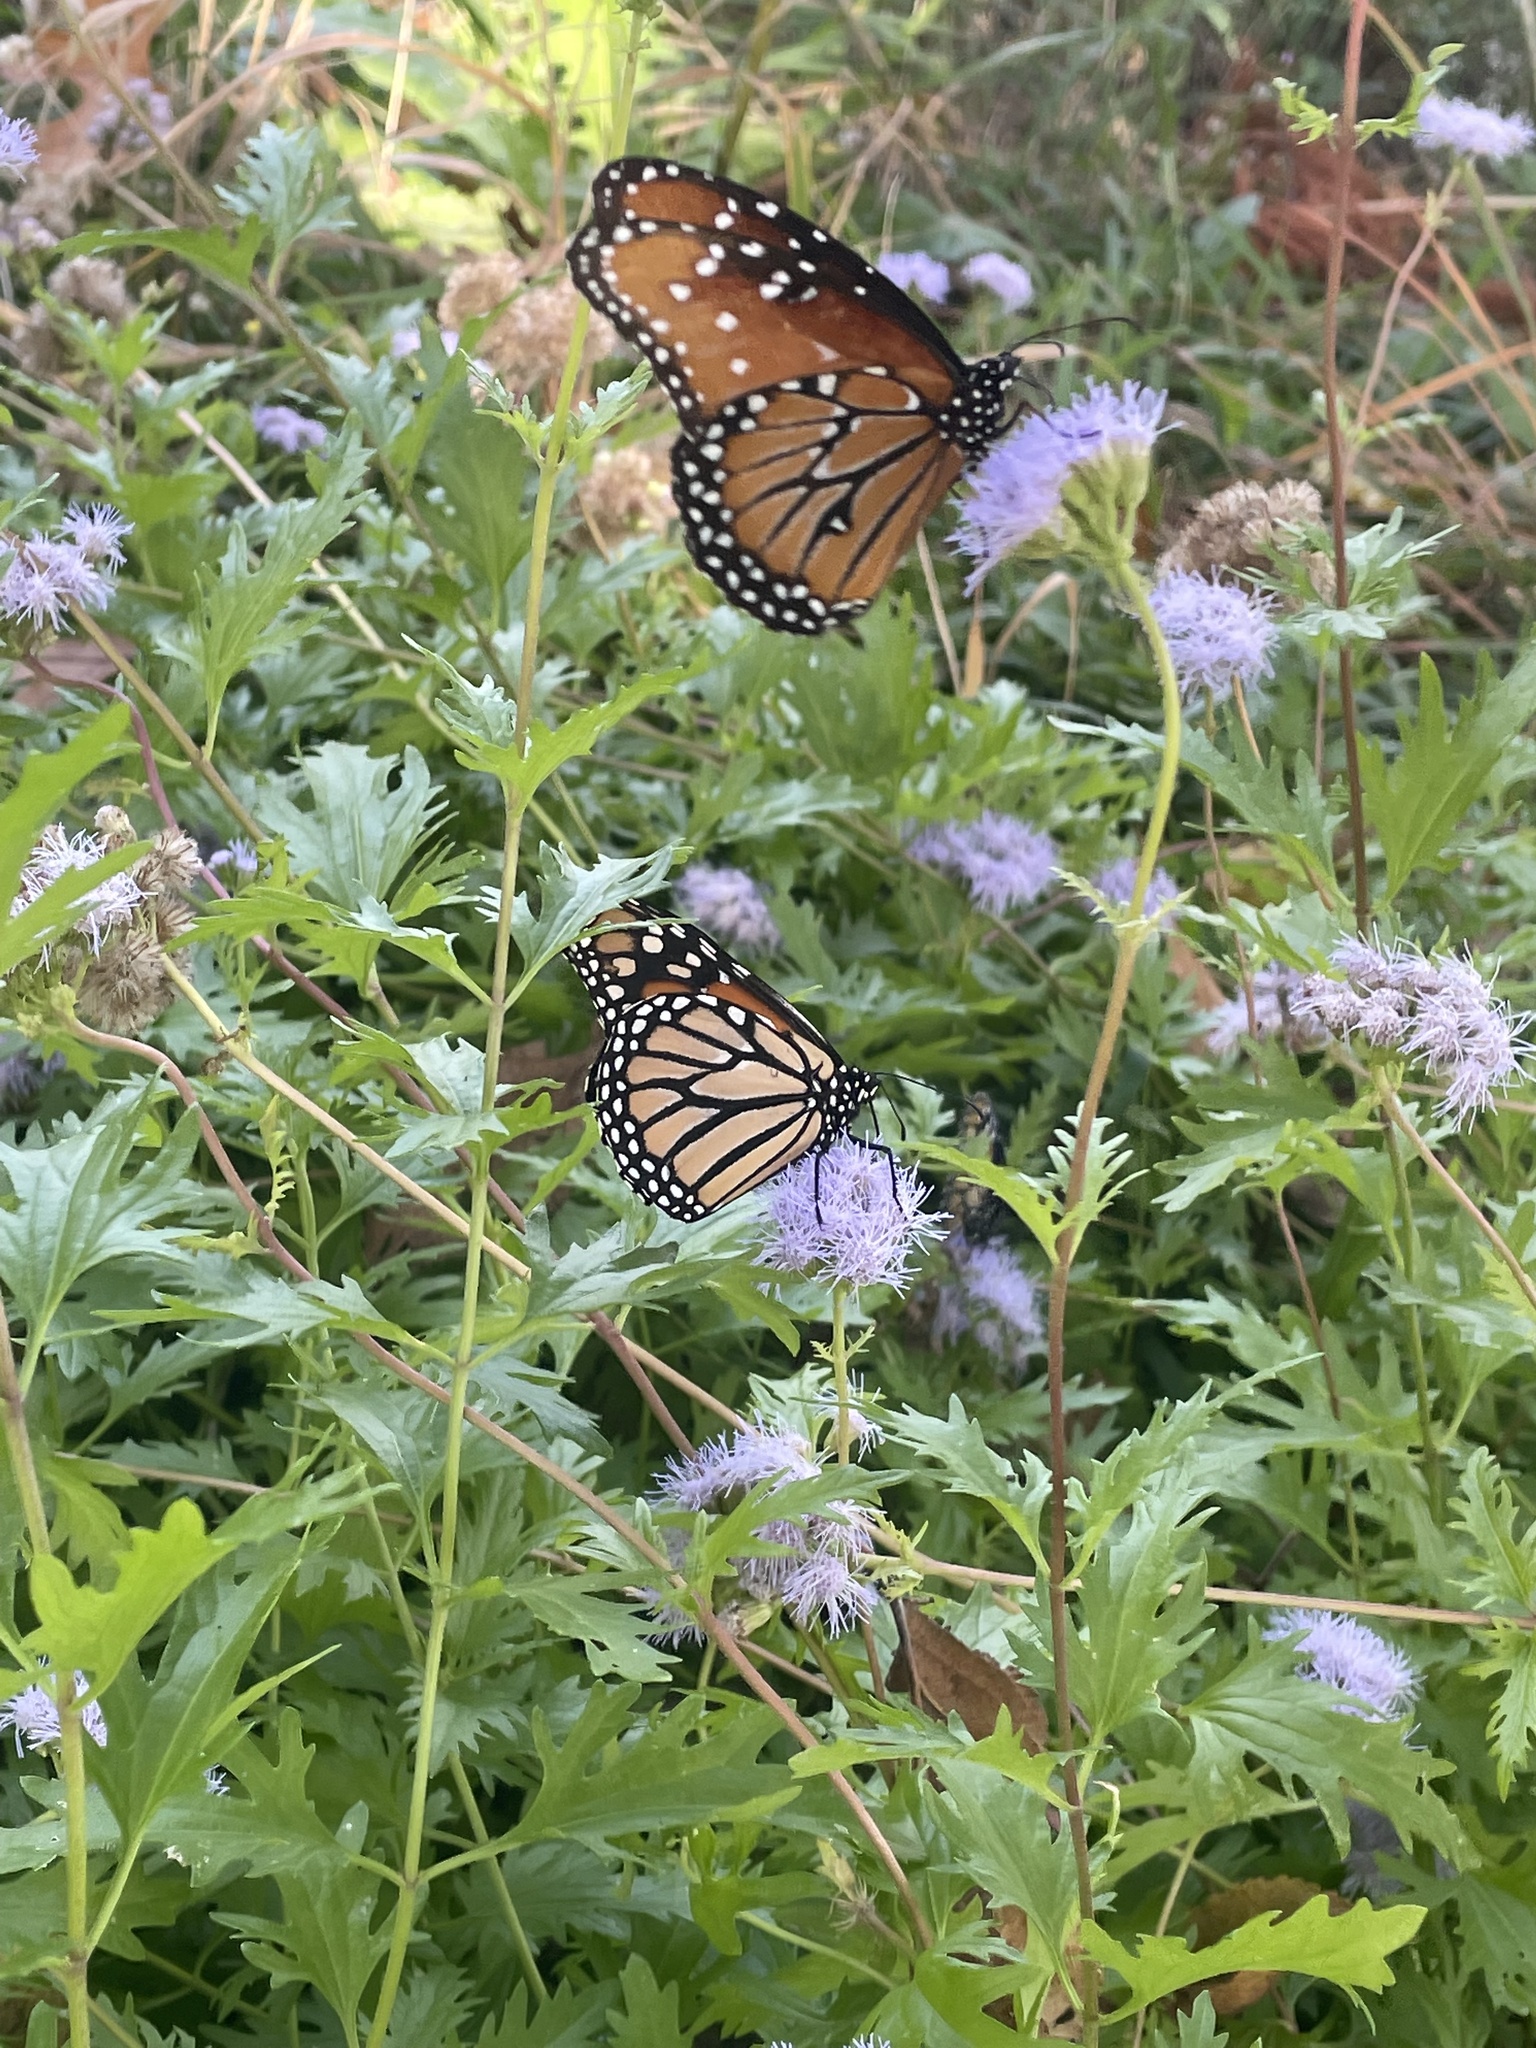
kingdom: Animalia
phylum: Arthropoda
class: Insecta
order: Lepidoptera
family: Nymphalidae
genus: Danaus
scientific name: Danaus gilippus
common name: Queen
